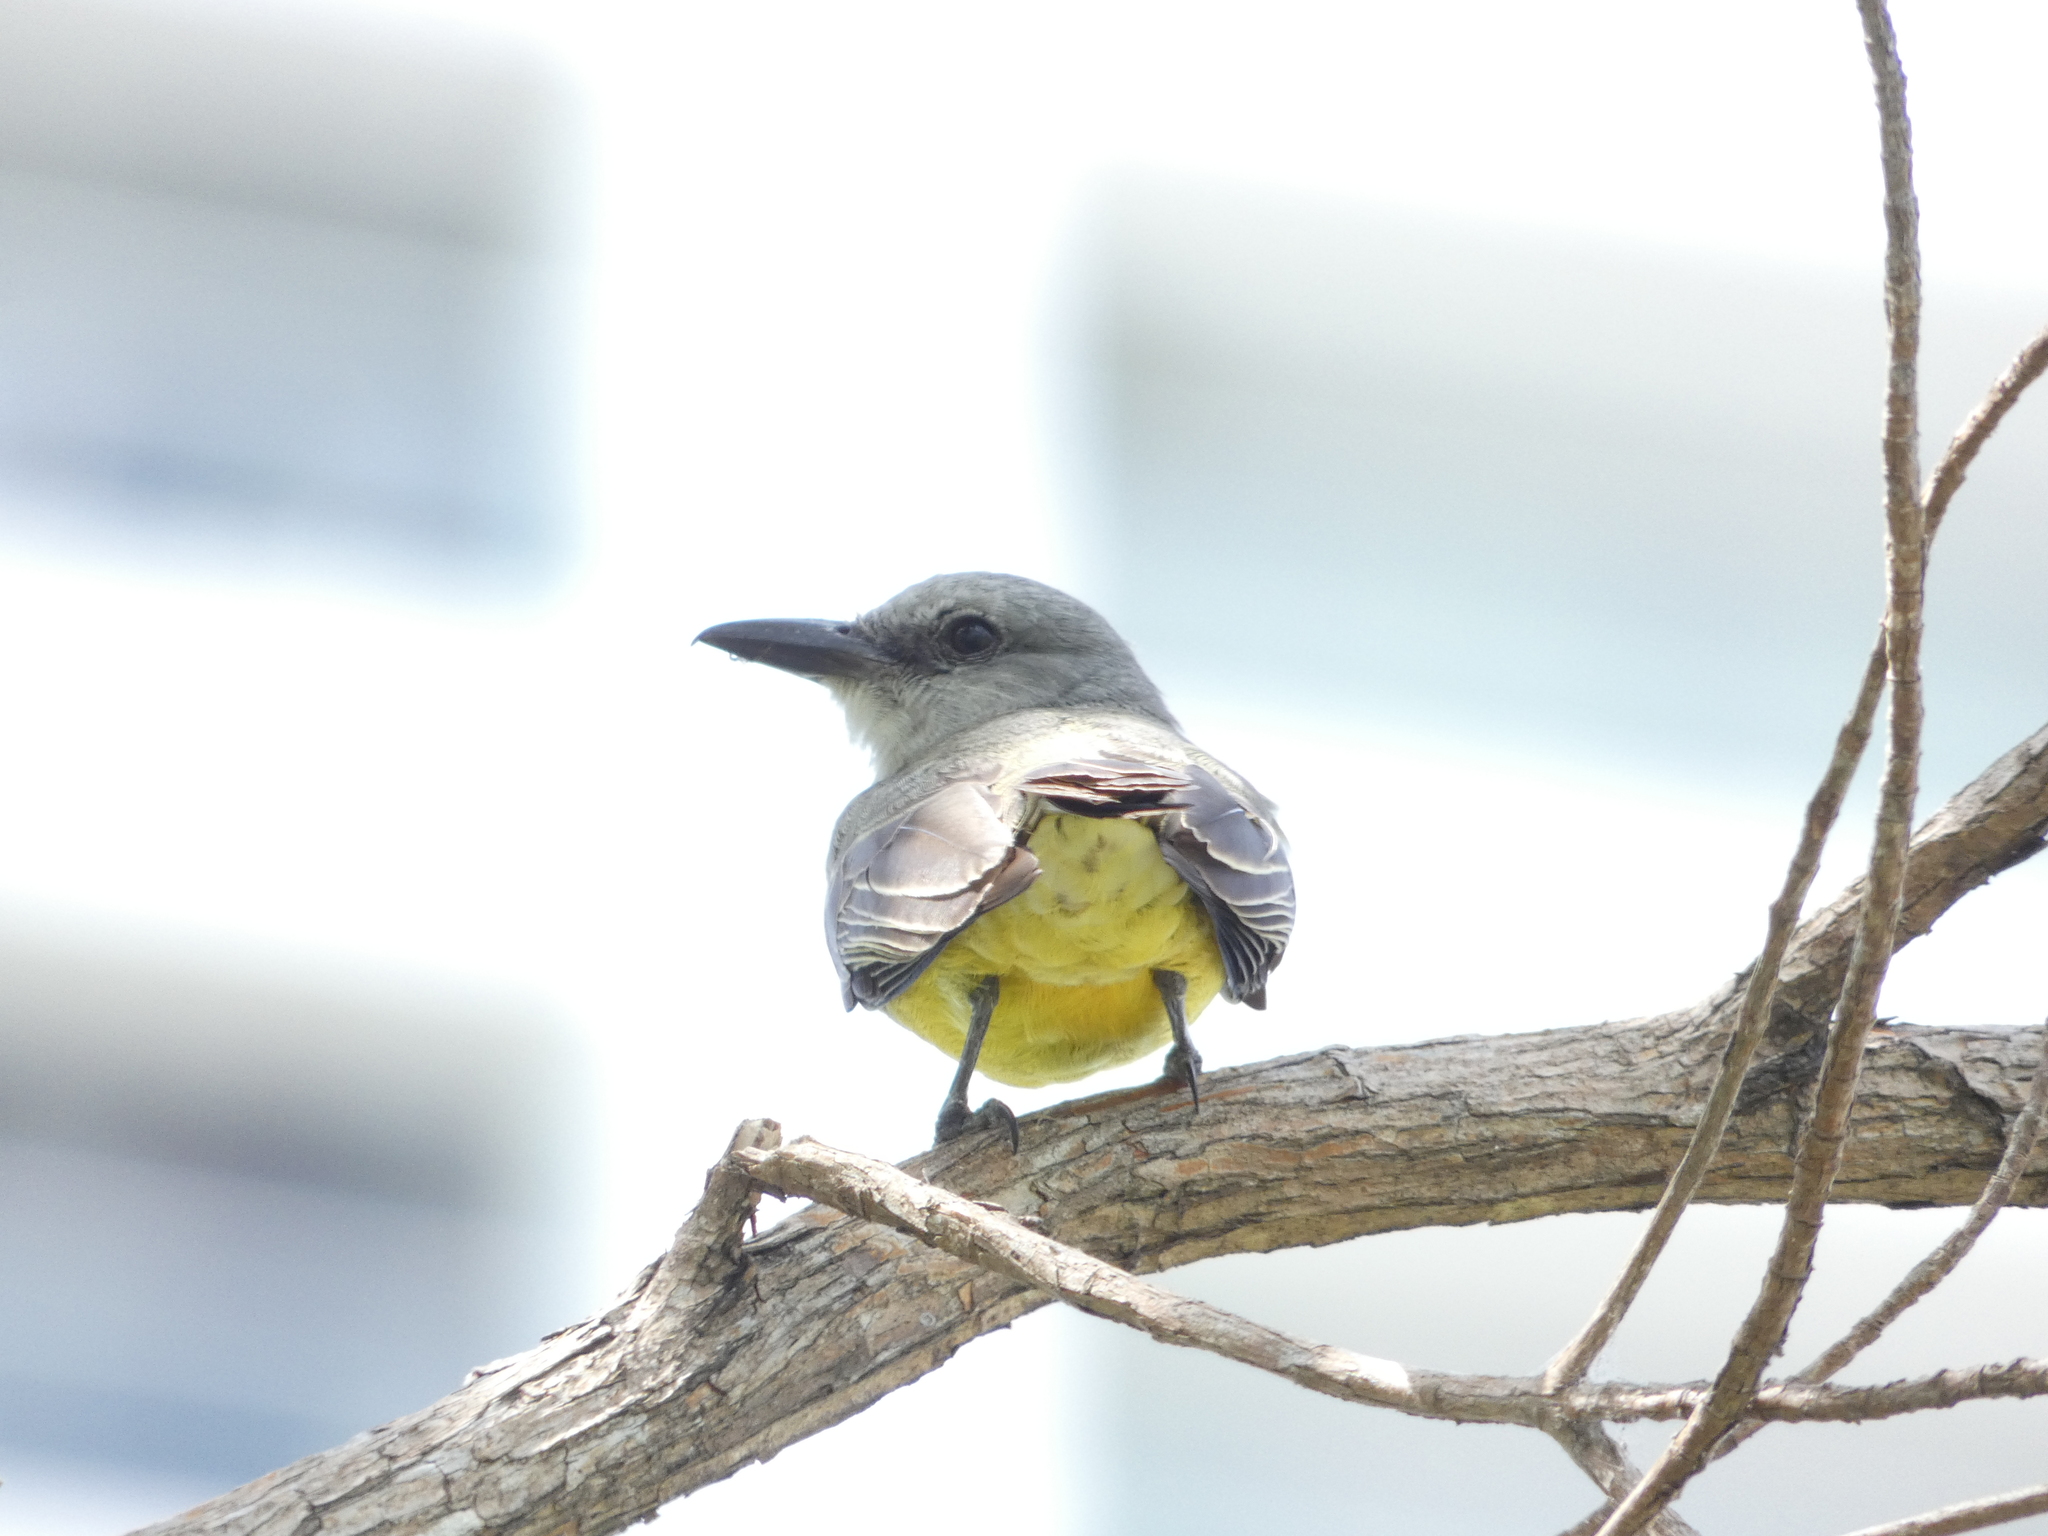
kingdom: Animalia
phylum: Chordata
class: Aves
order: Passeriformes
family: Tyrannidae
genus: Tyrannus
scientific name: Tyrannus melancholicus
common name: Tropical kingbird
